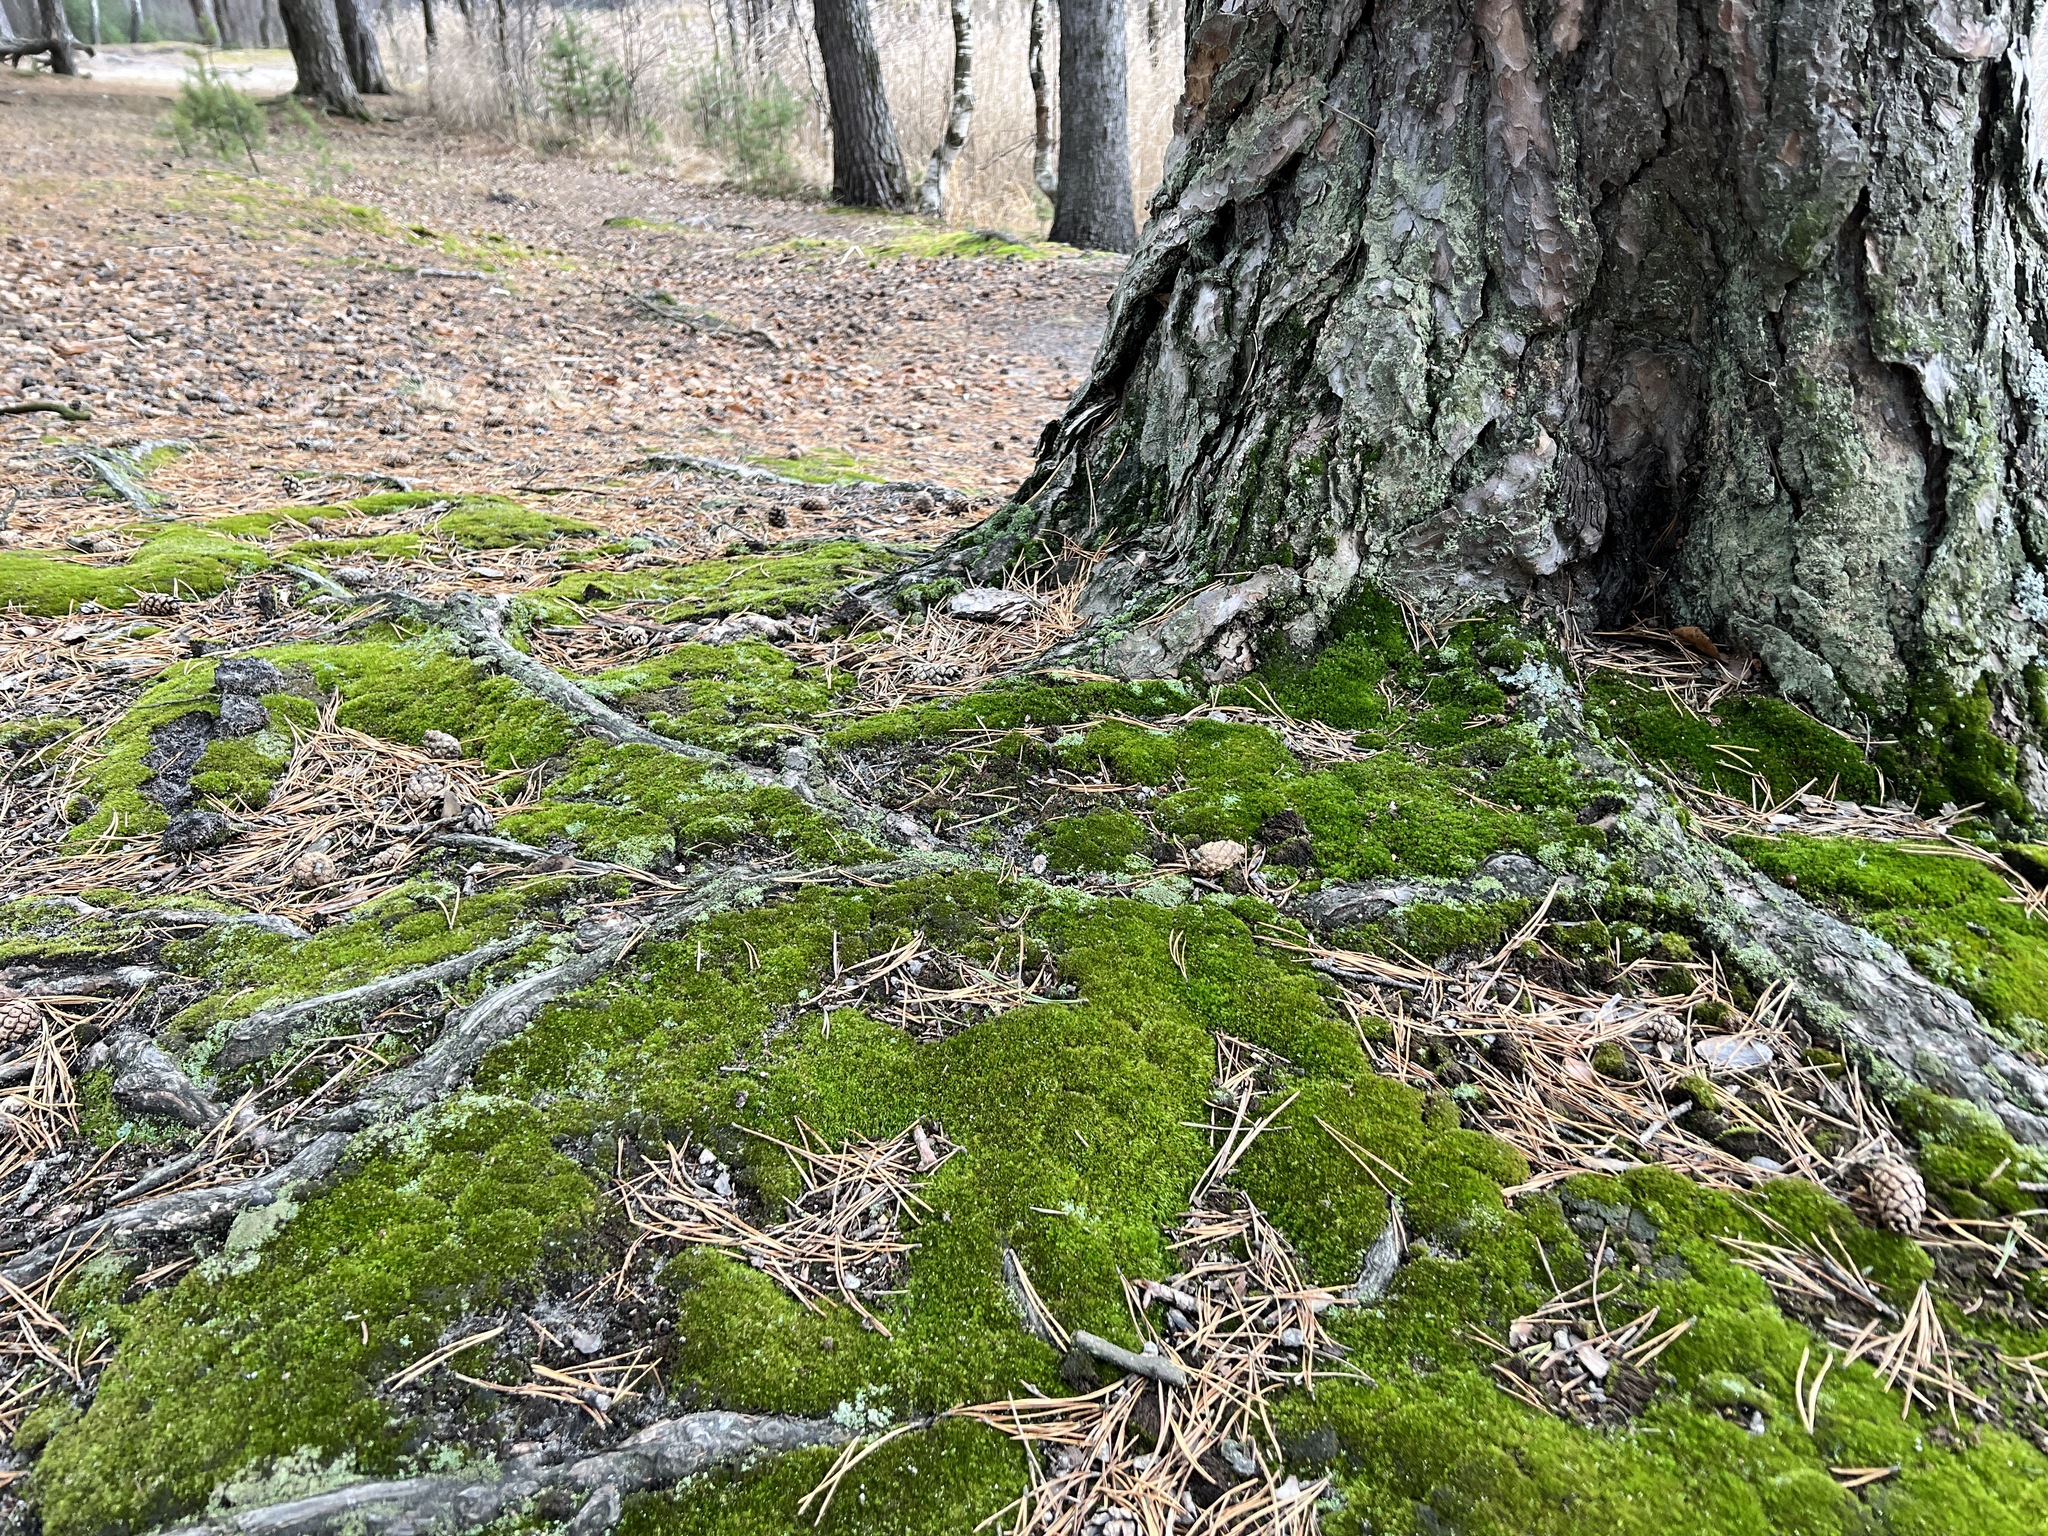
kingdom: Plantae
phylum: Bryophyta
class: Bryopsida
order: Dicranales
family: Dicranaceae
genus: Dicranum
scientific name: Dicranum scoparium
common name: Broom fork-moss
